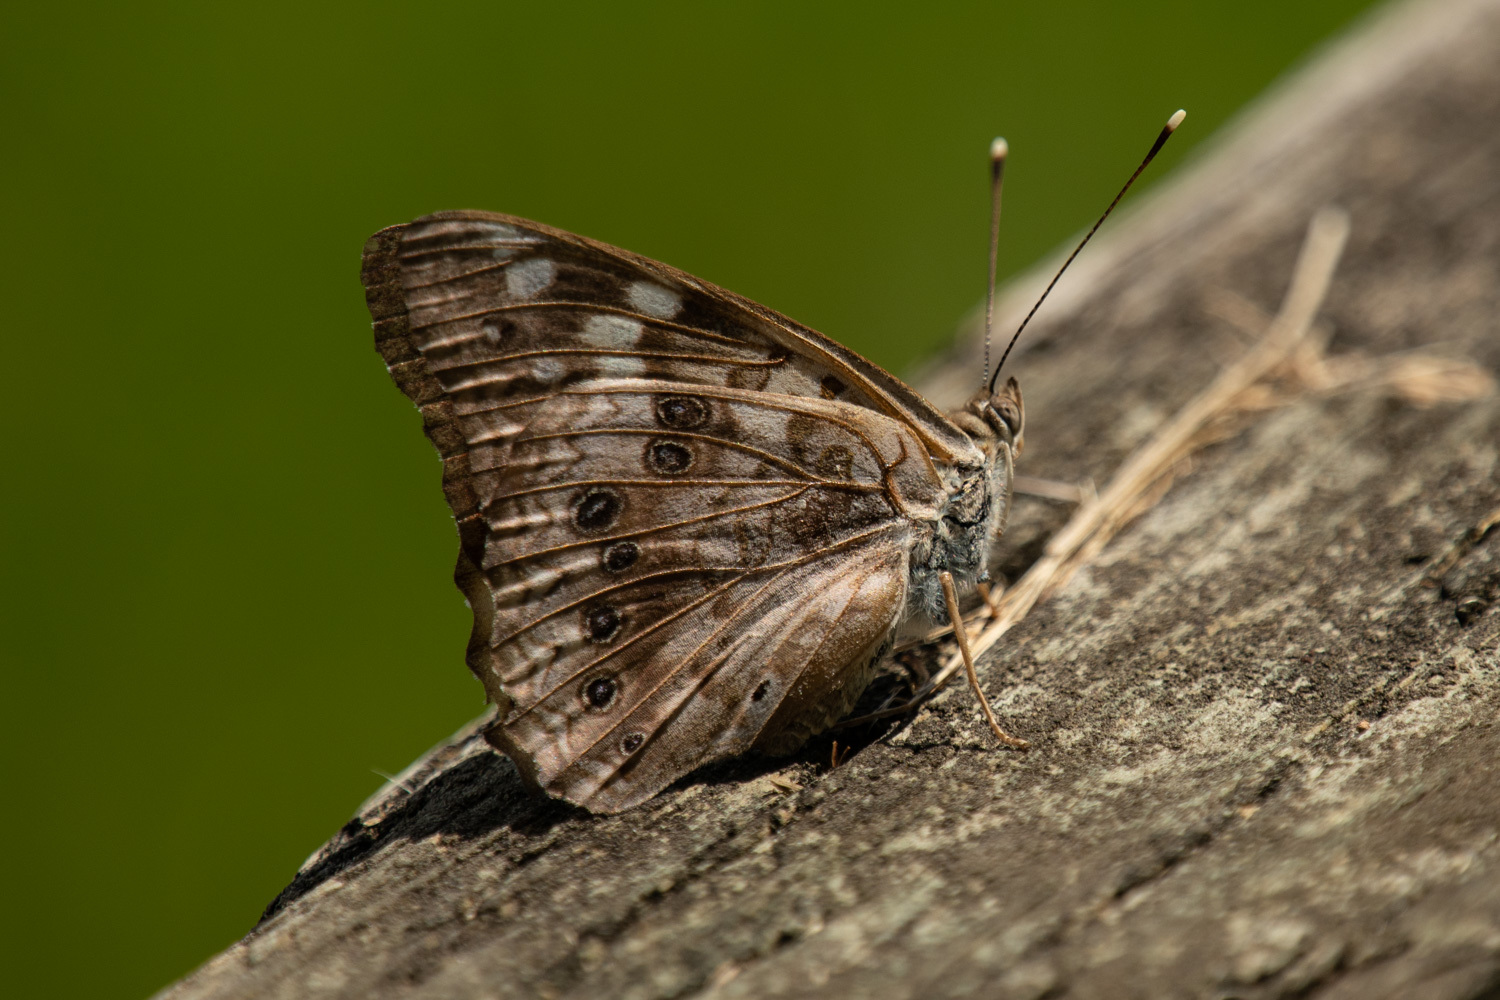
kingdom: Animalia
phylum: Arthropoda
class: Insecta
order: Lepidoptera
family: Nymphalidae
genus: Asterocampa
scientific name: Asterocampa celtis
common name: Hackberry emperor
